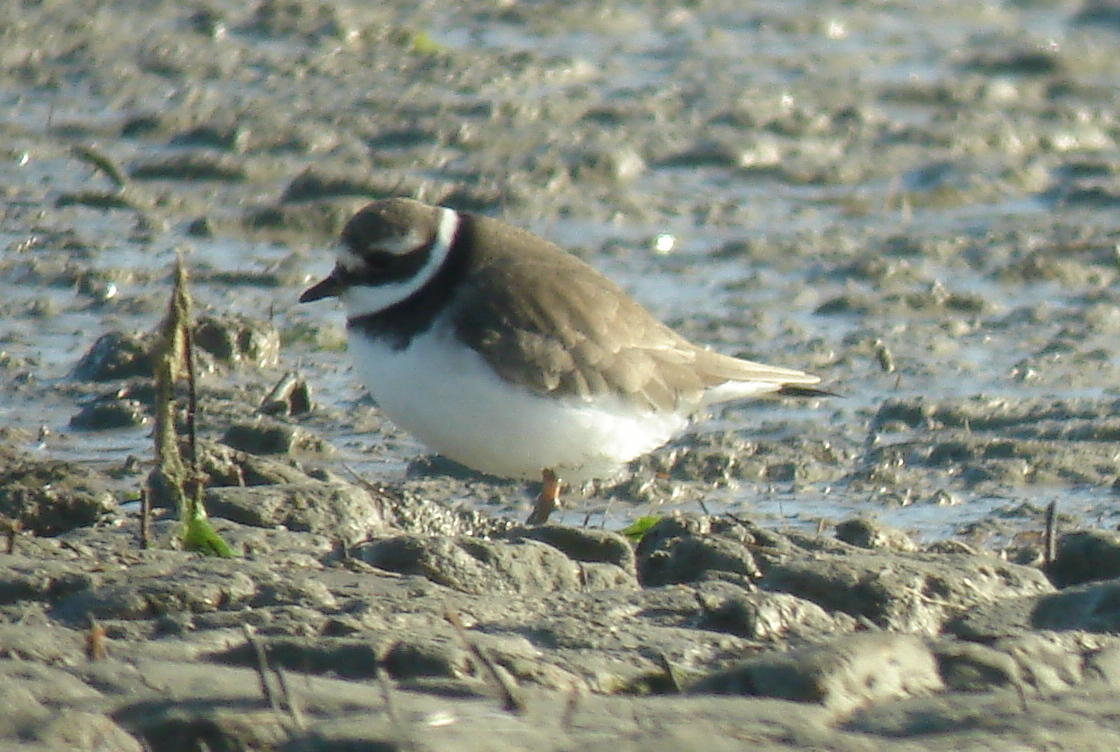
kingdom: Animalia
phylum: Chordata
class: Aves
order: Charadriiformes
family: Charadriidae
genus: Charadrius
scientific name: Charadrius hiaticula
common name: Common ringed plover
